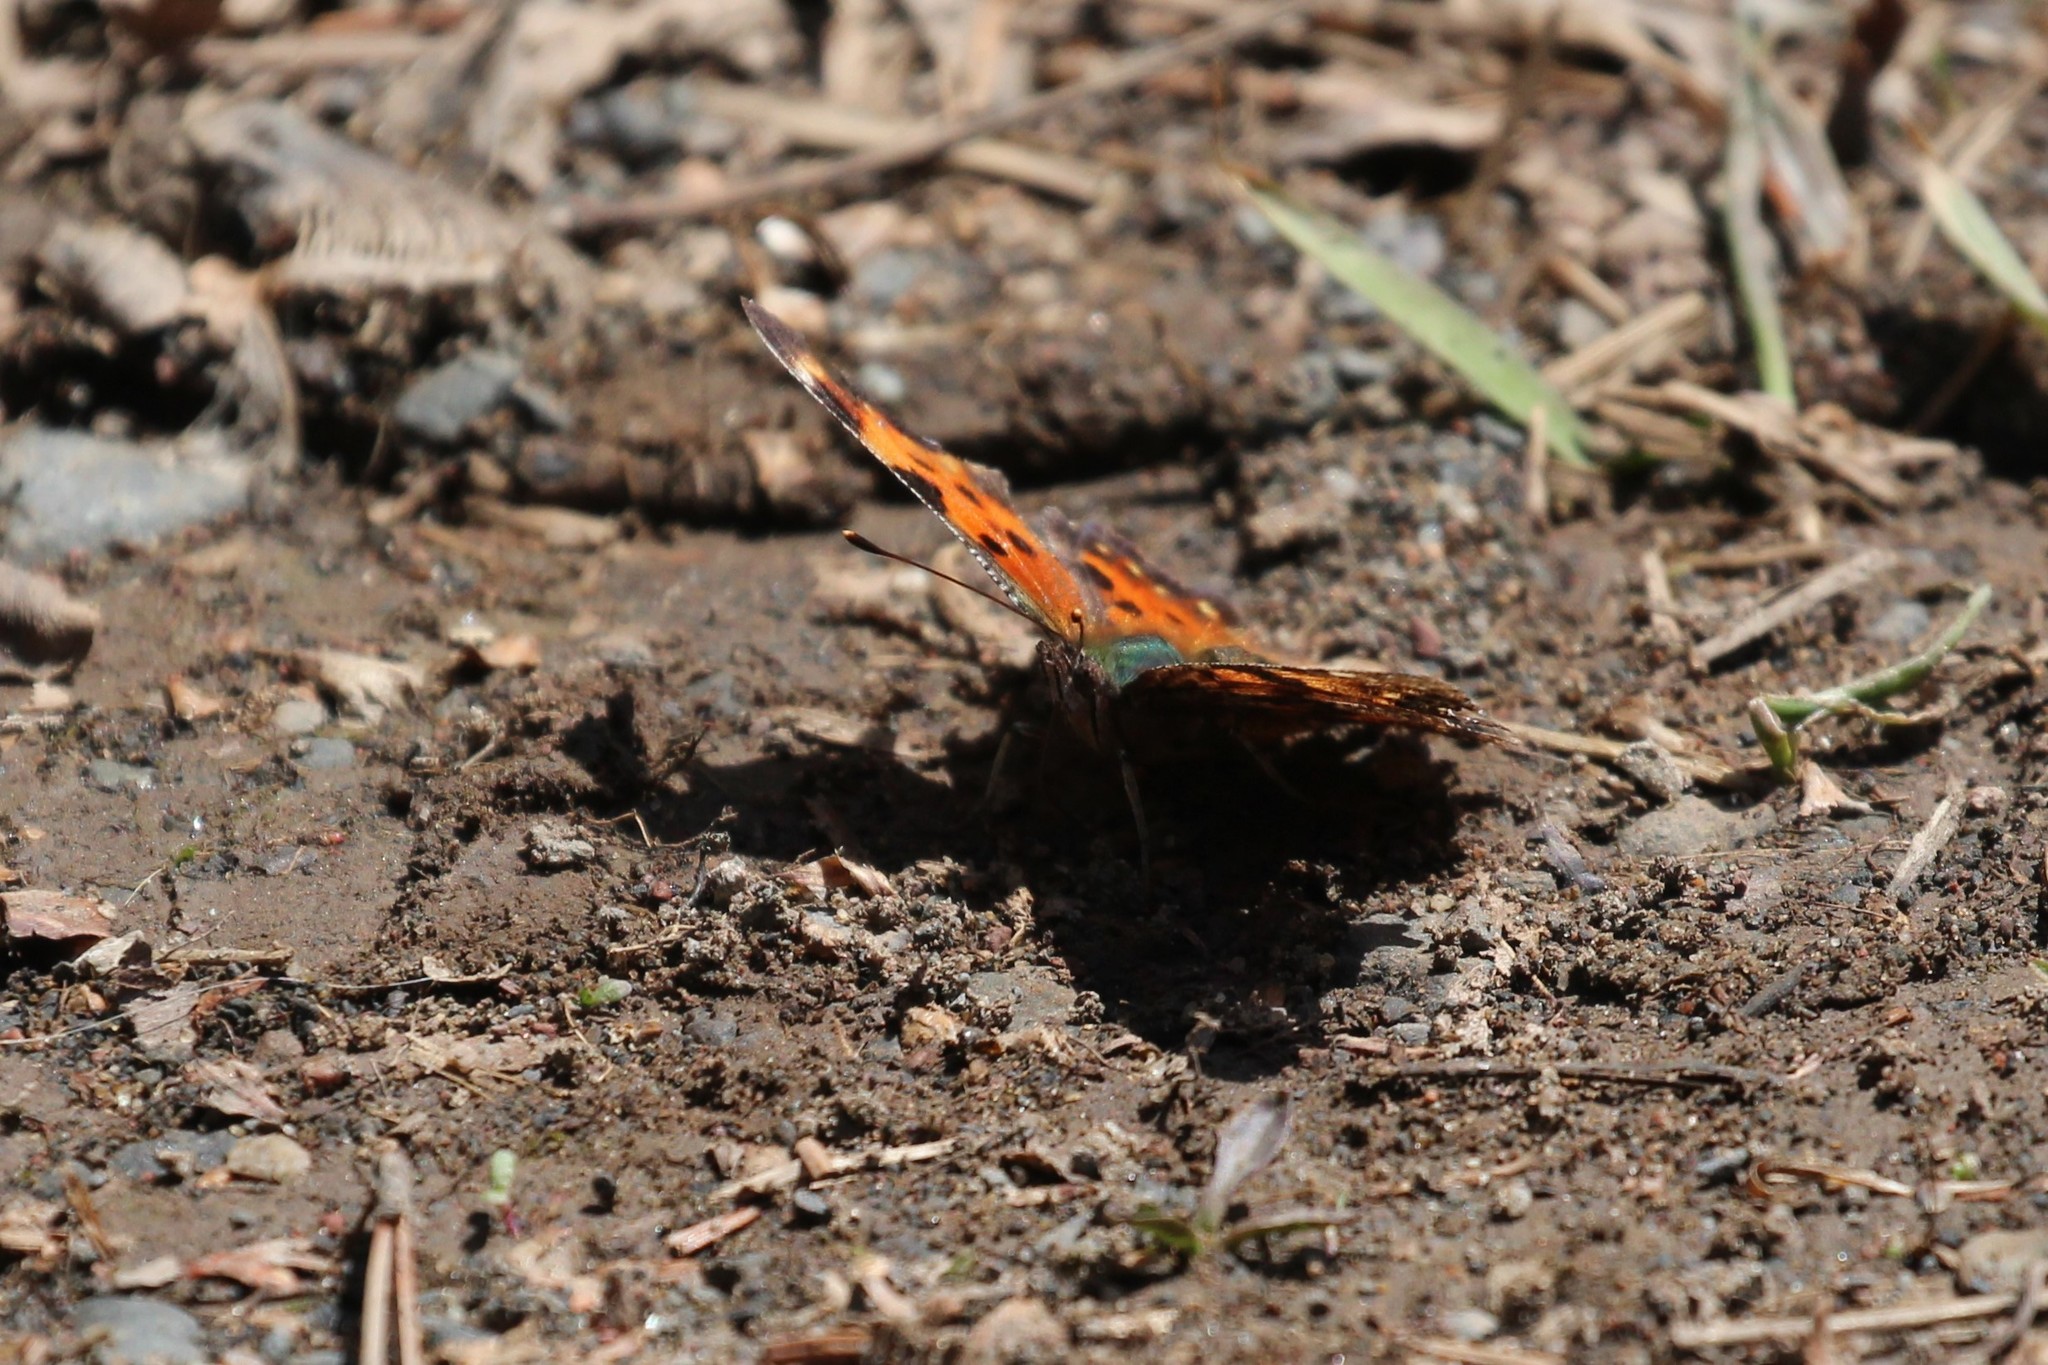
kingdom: Animalia
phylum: Arthropoda
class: Insecta
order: Lepidoptera
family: Nymphalidae
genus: Polygonia
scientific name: Polygonia faunus
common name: Green comma
